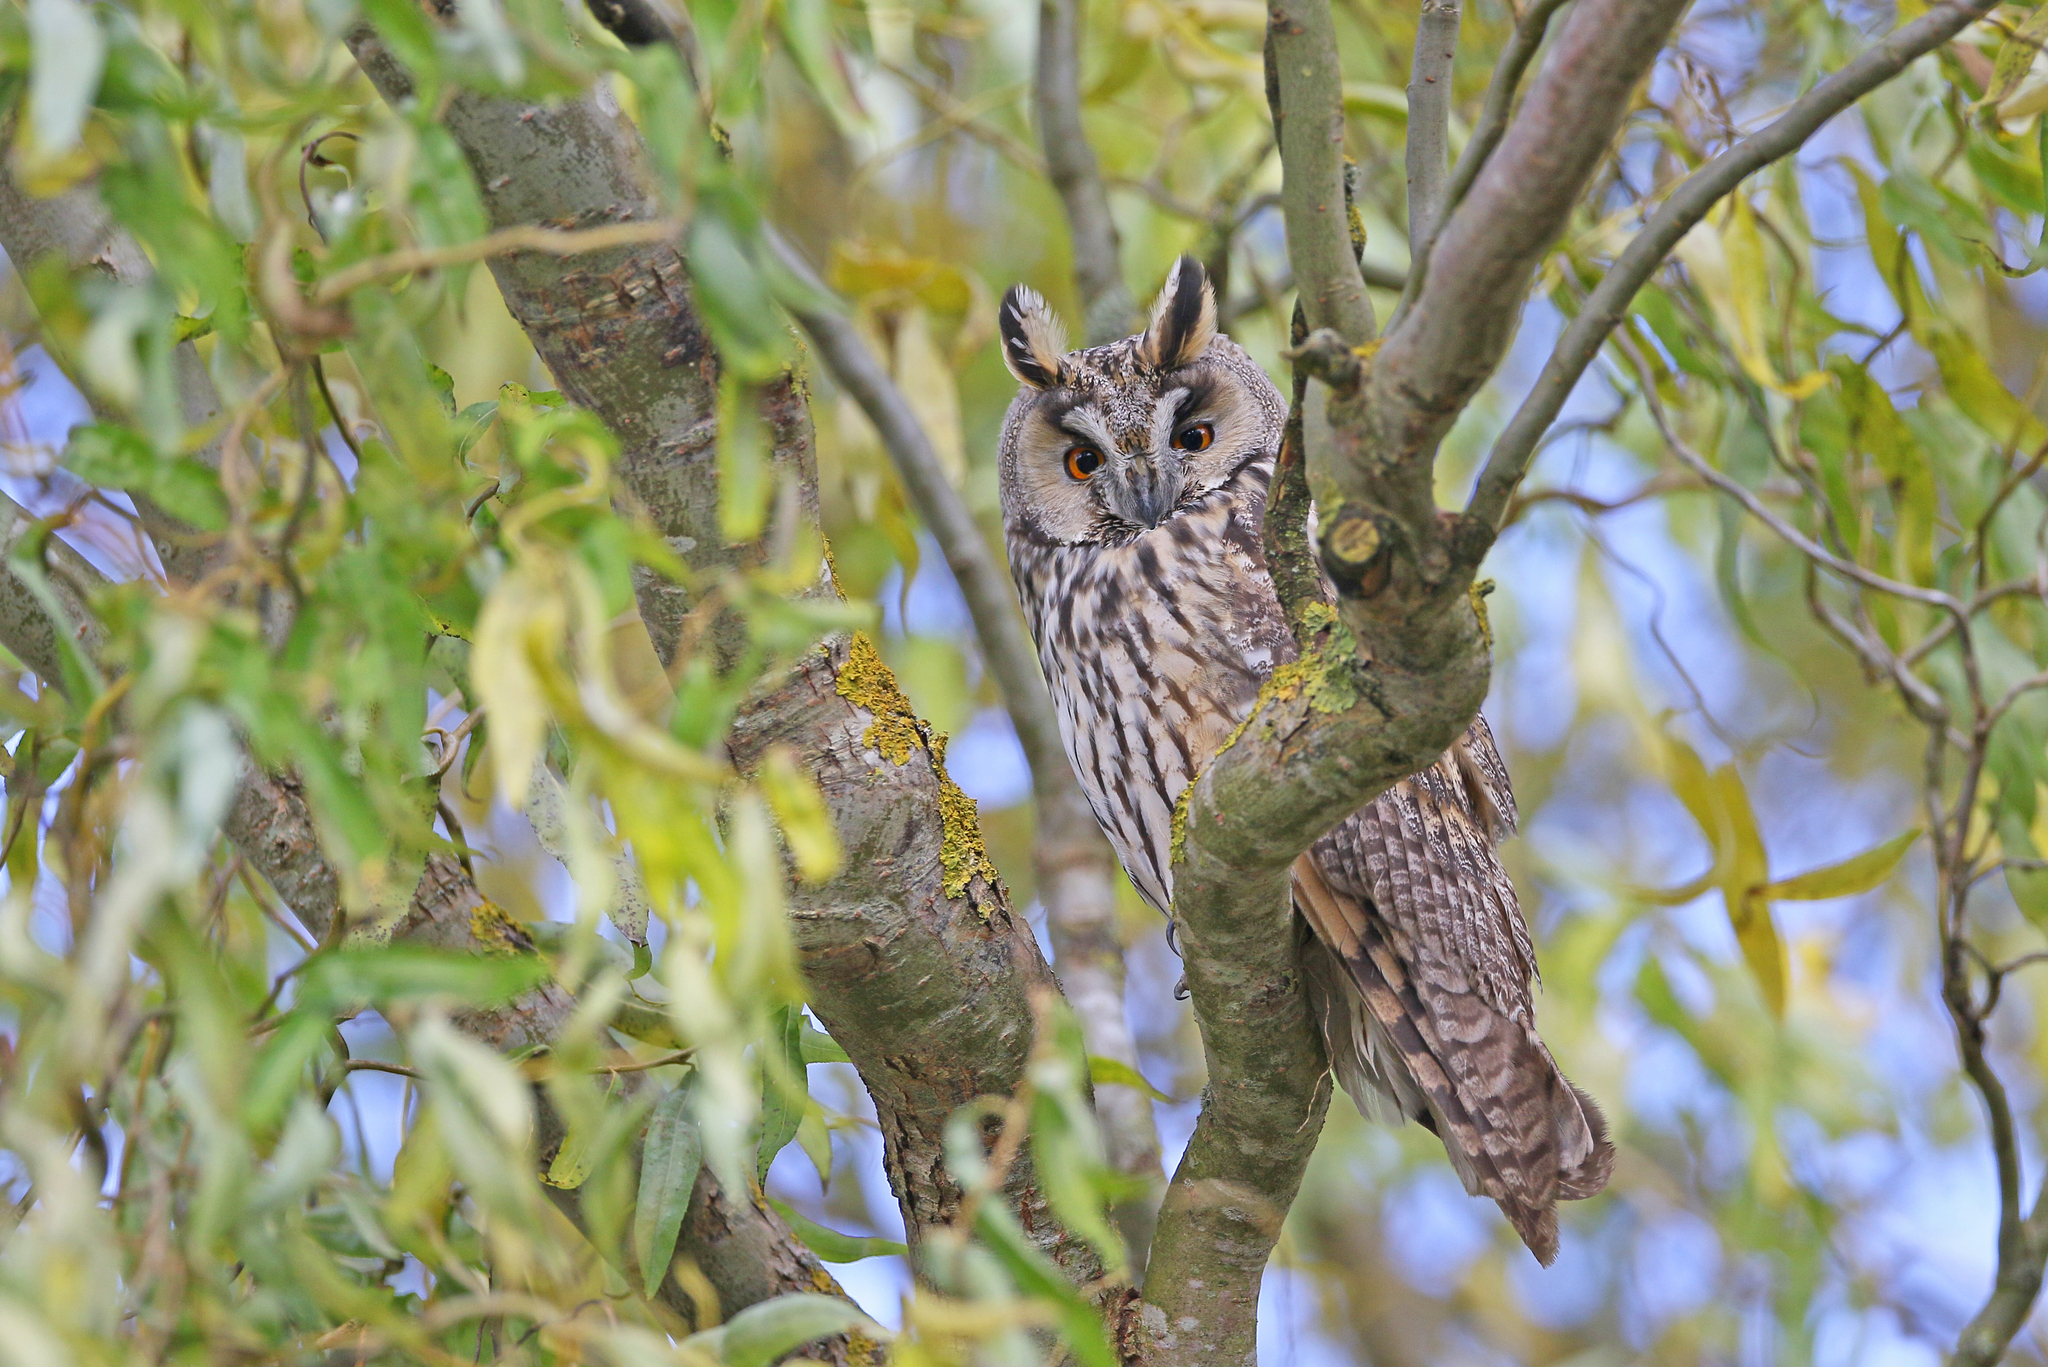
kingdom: Animalia
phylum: Chordata
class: Aves
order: Strigiformes
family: Strigidae
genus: Asio
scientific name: Asio otus
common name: Long-eared owl
